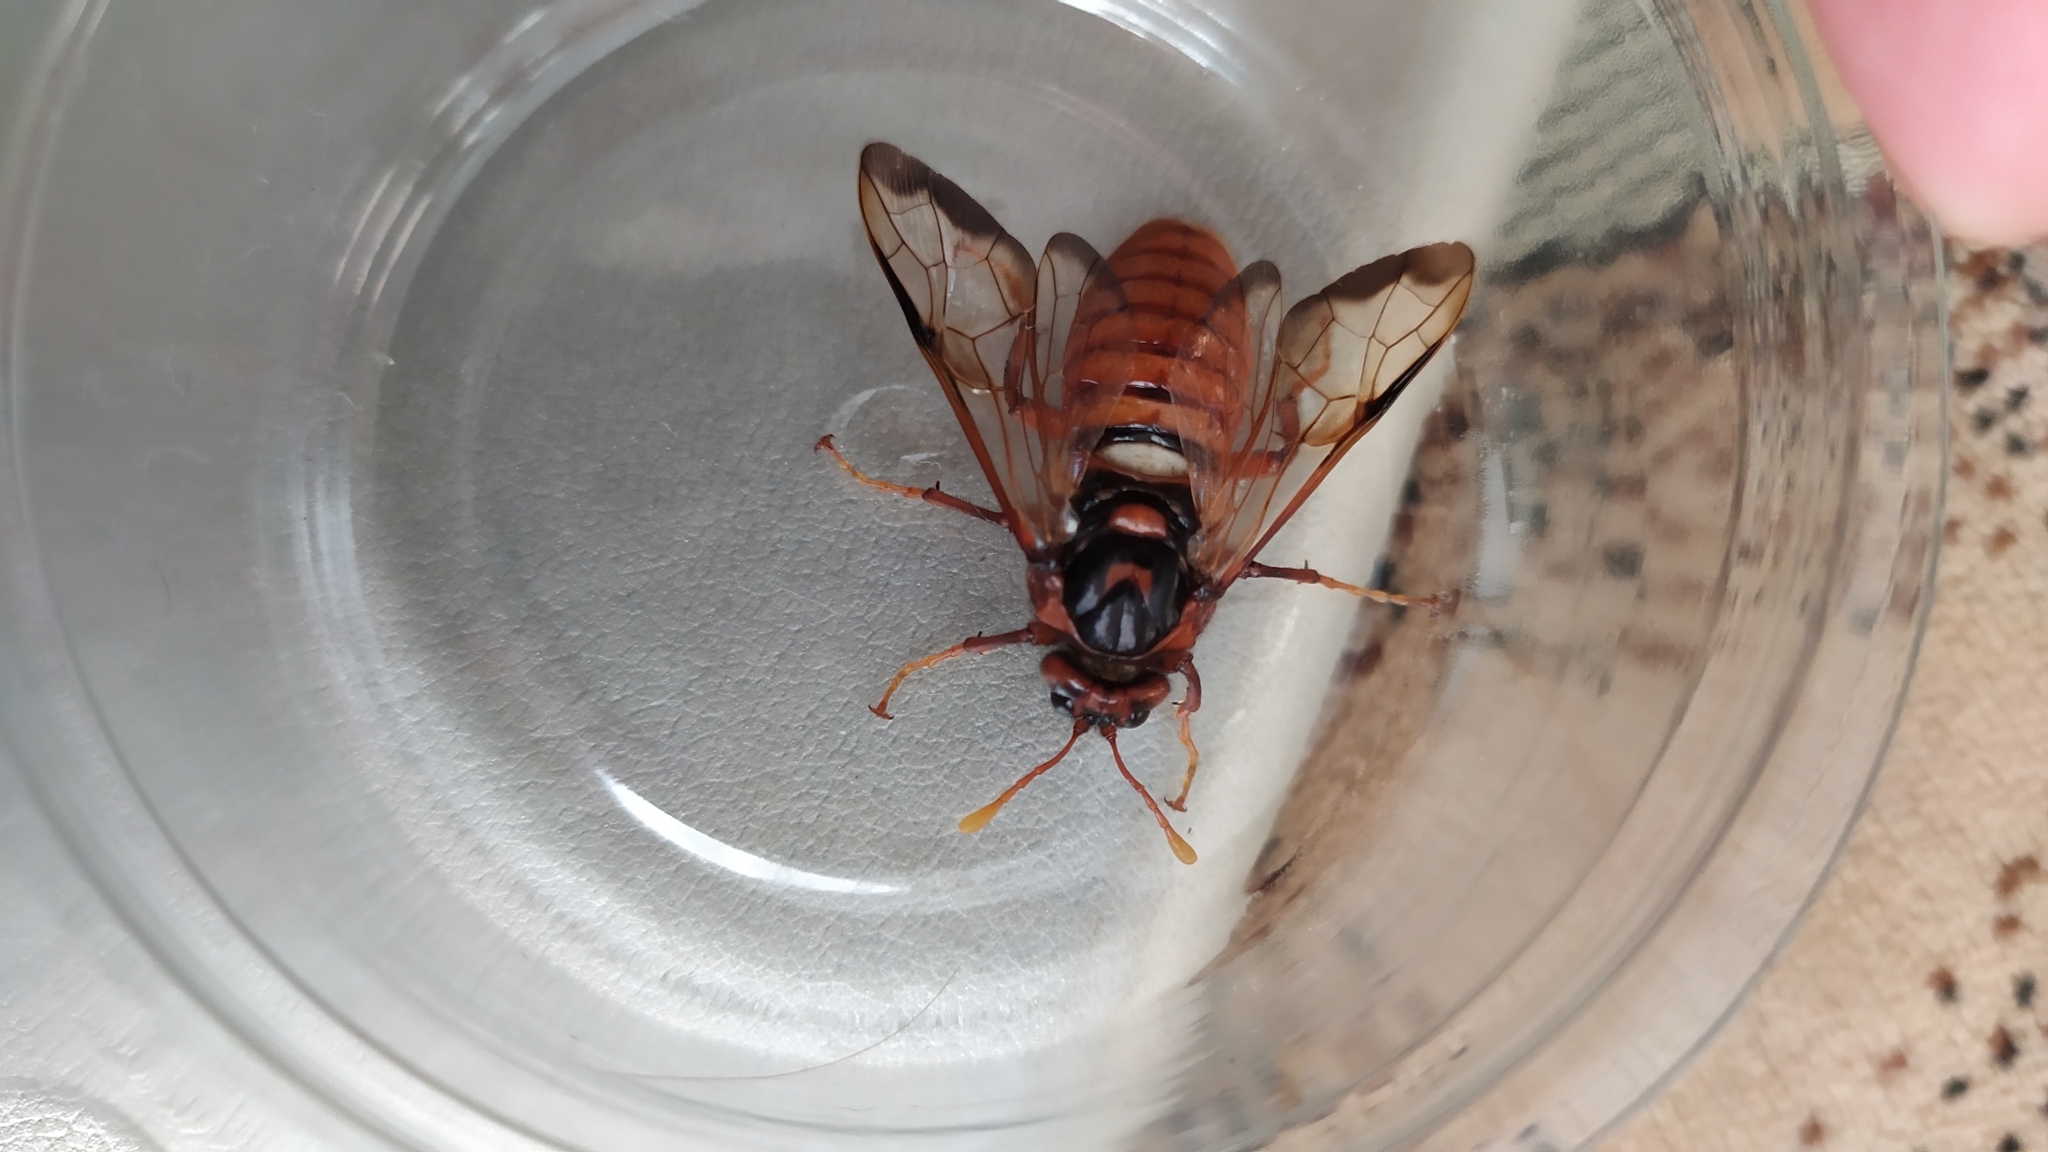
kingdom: Animalia
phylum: Arthropoda
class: Insecta
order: Hymenoptera
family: Cimbicidae
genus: Cimbex
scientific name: Cimbex femoratus
